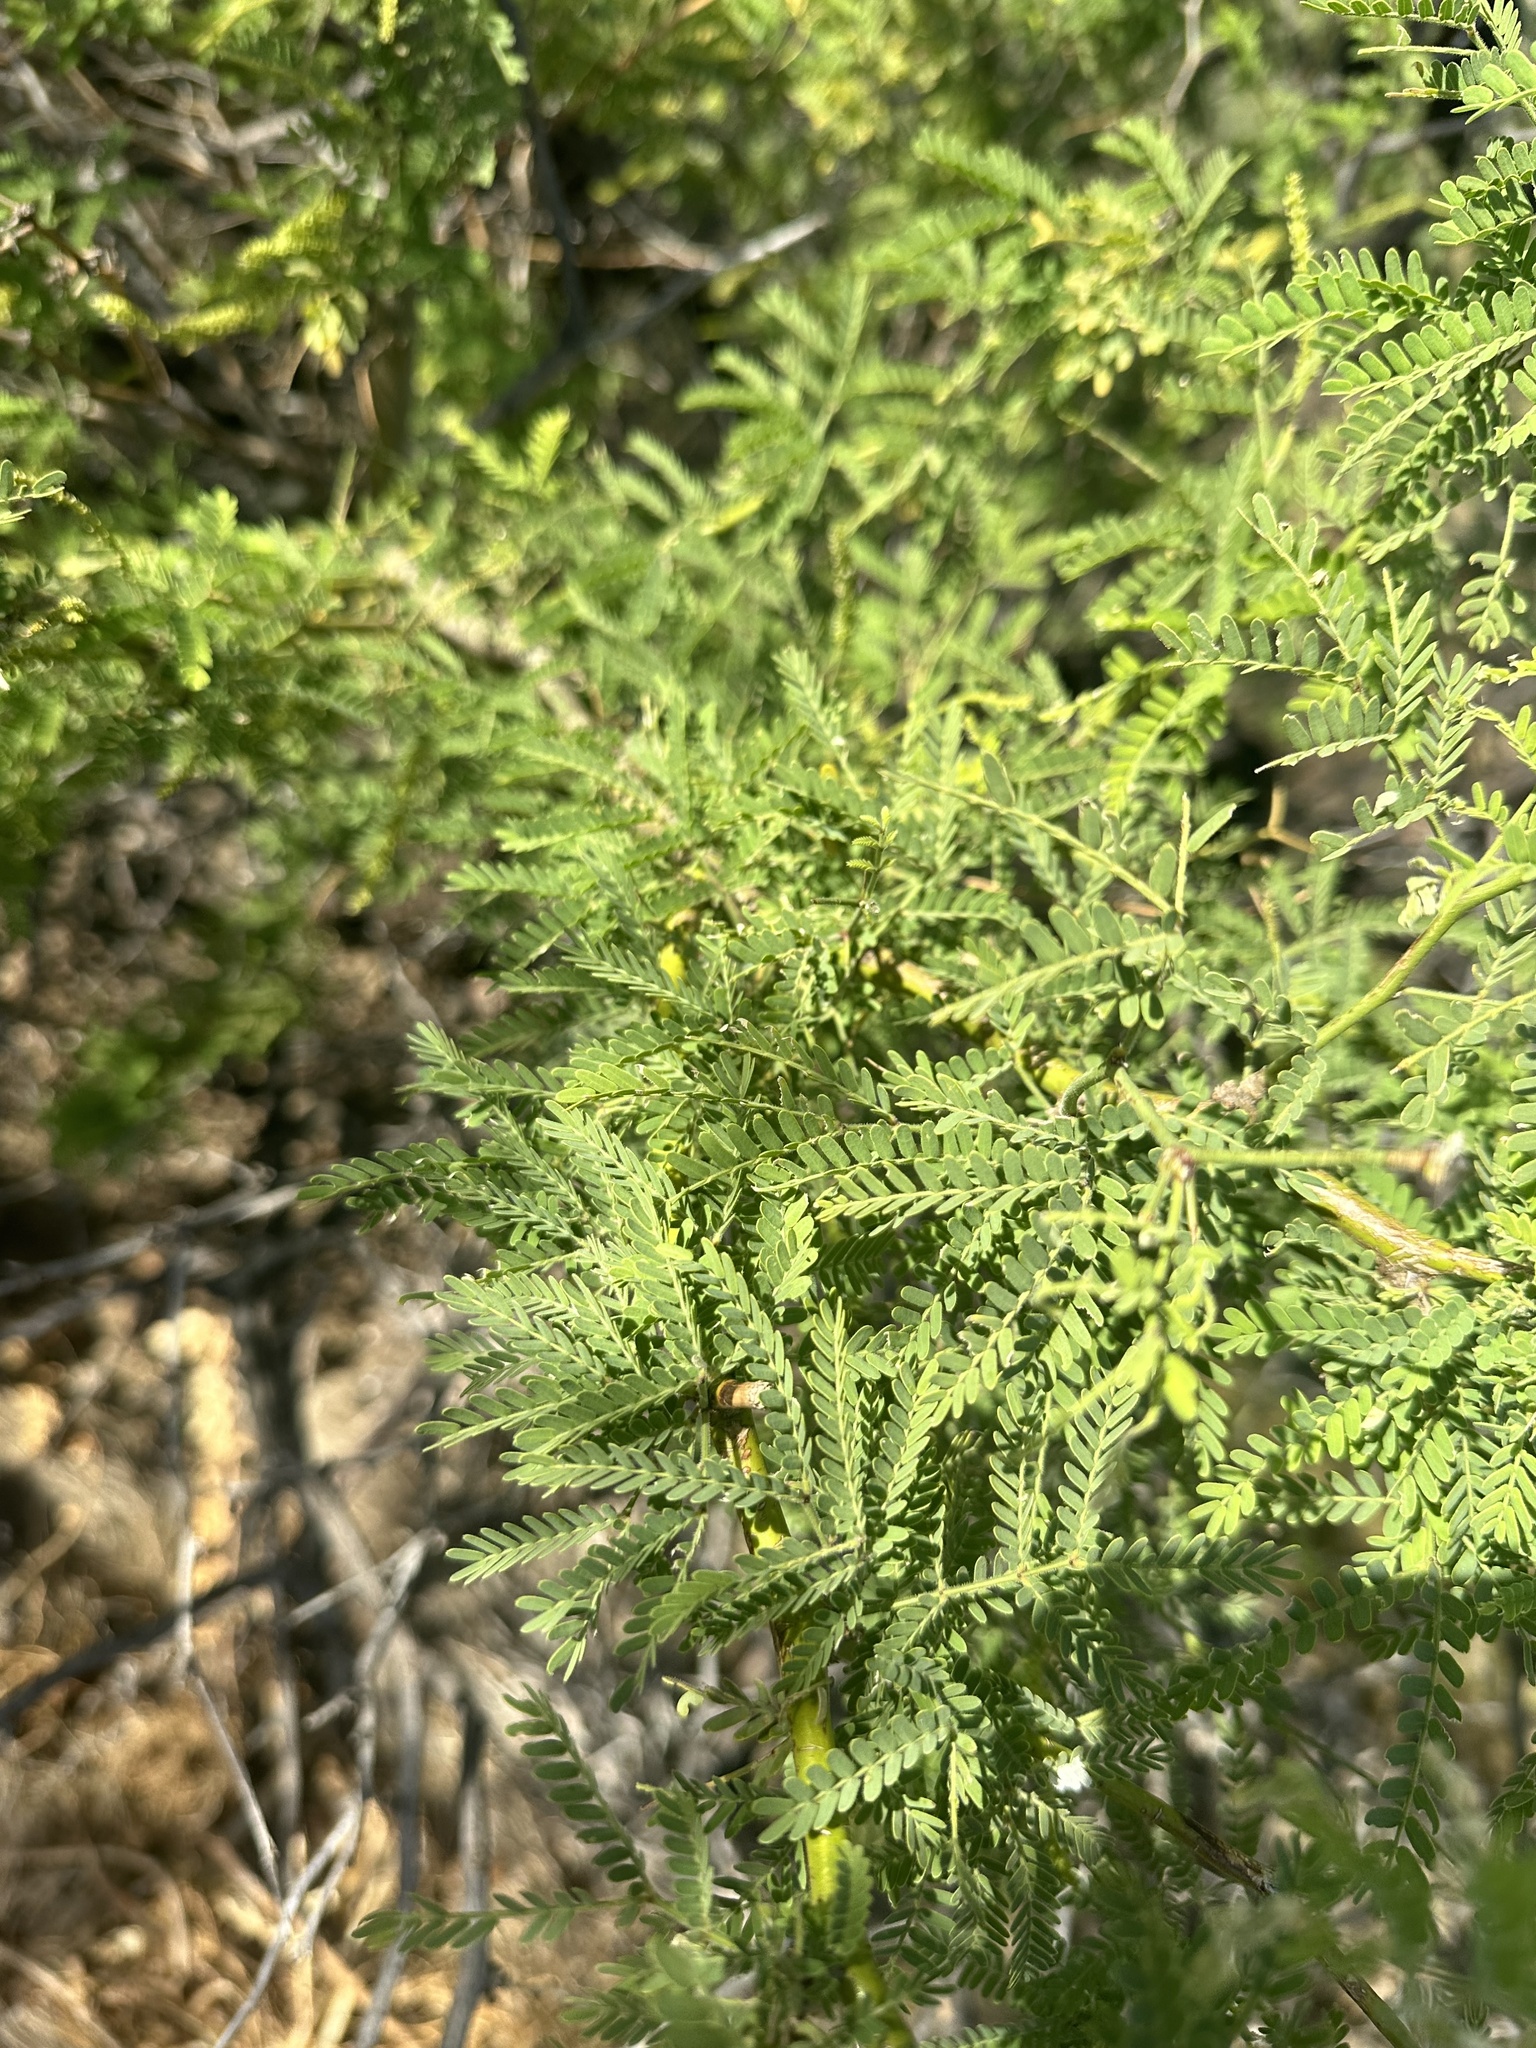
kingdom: Plantae
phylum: Tracheophyta
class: Magnoliopsida
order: Fabales
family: Fabaceae
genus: Prosopis
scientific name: Prosopis pallida
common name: Mesquite
